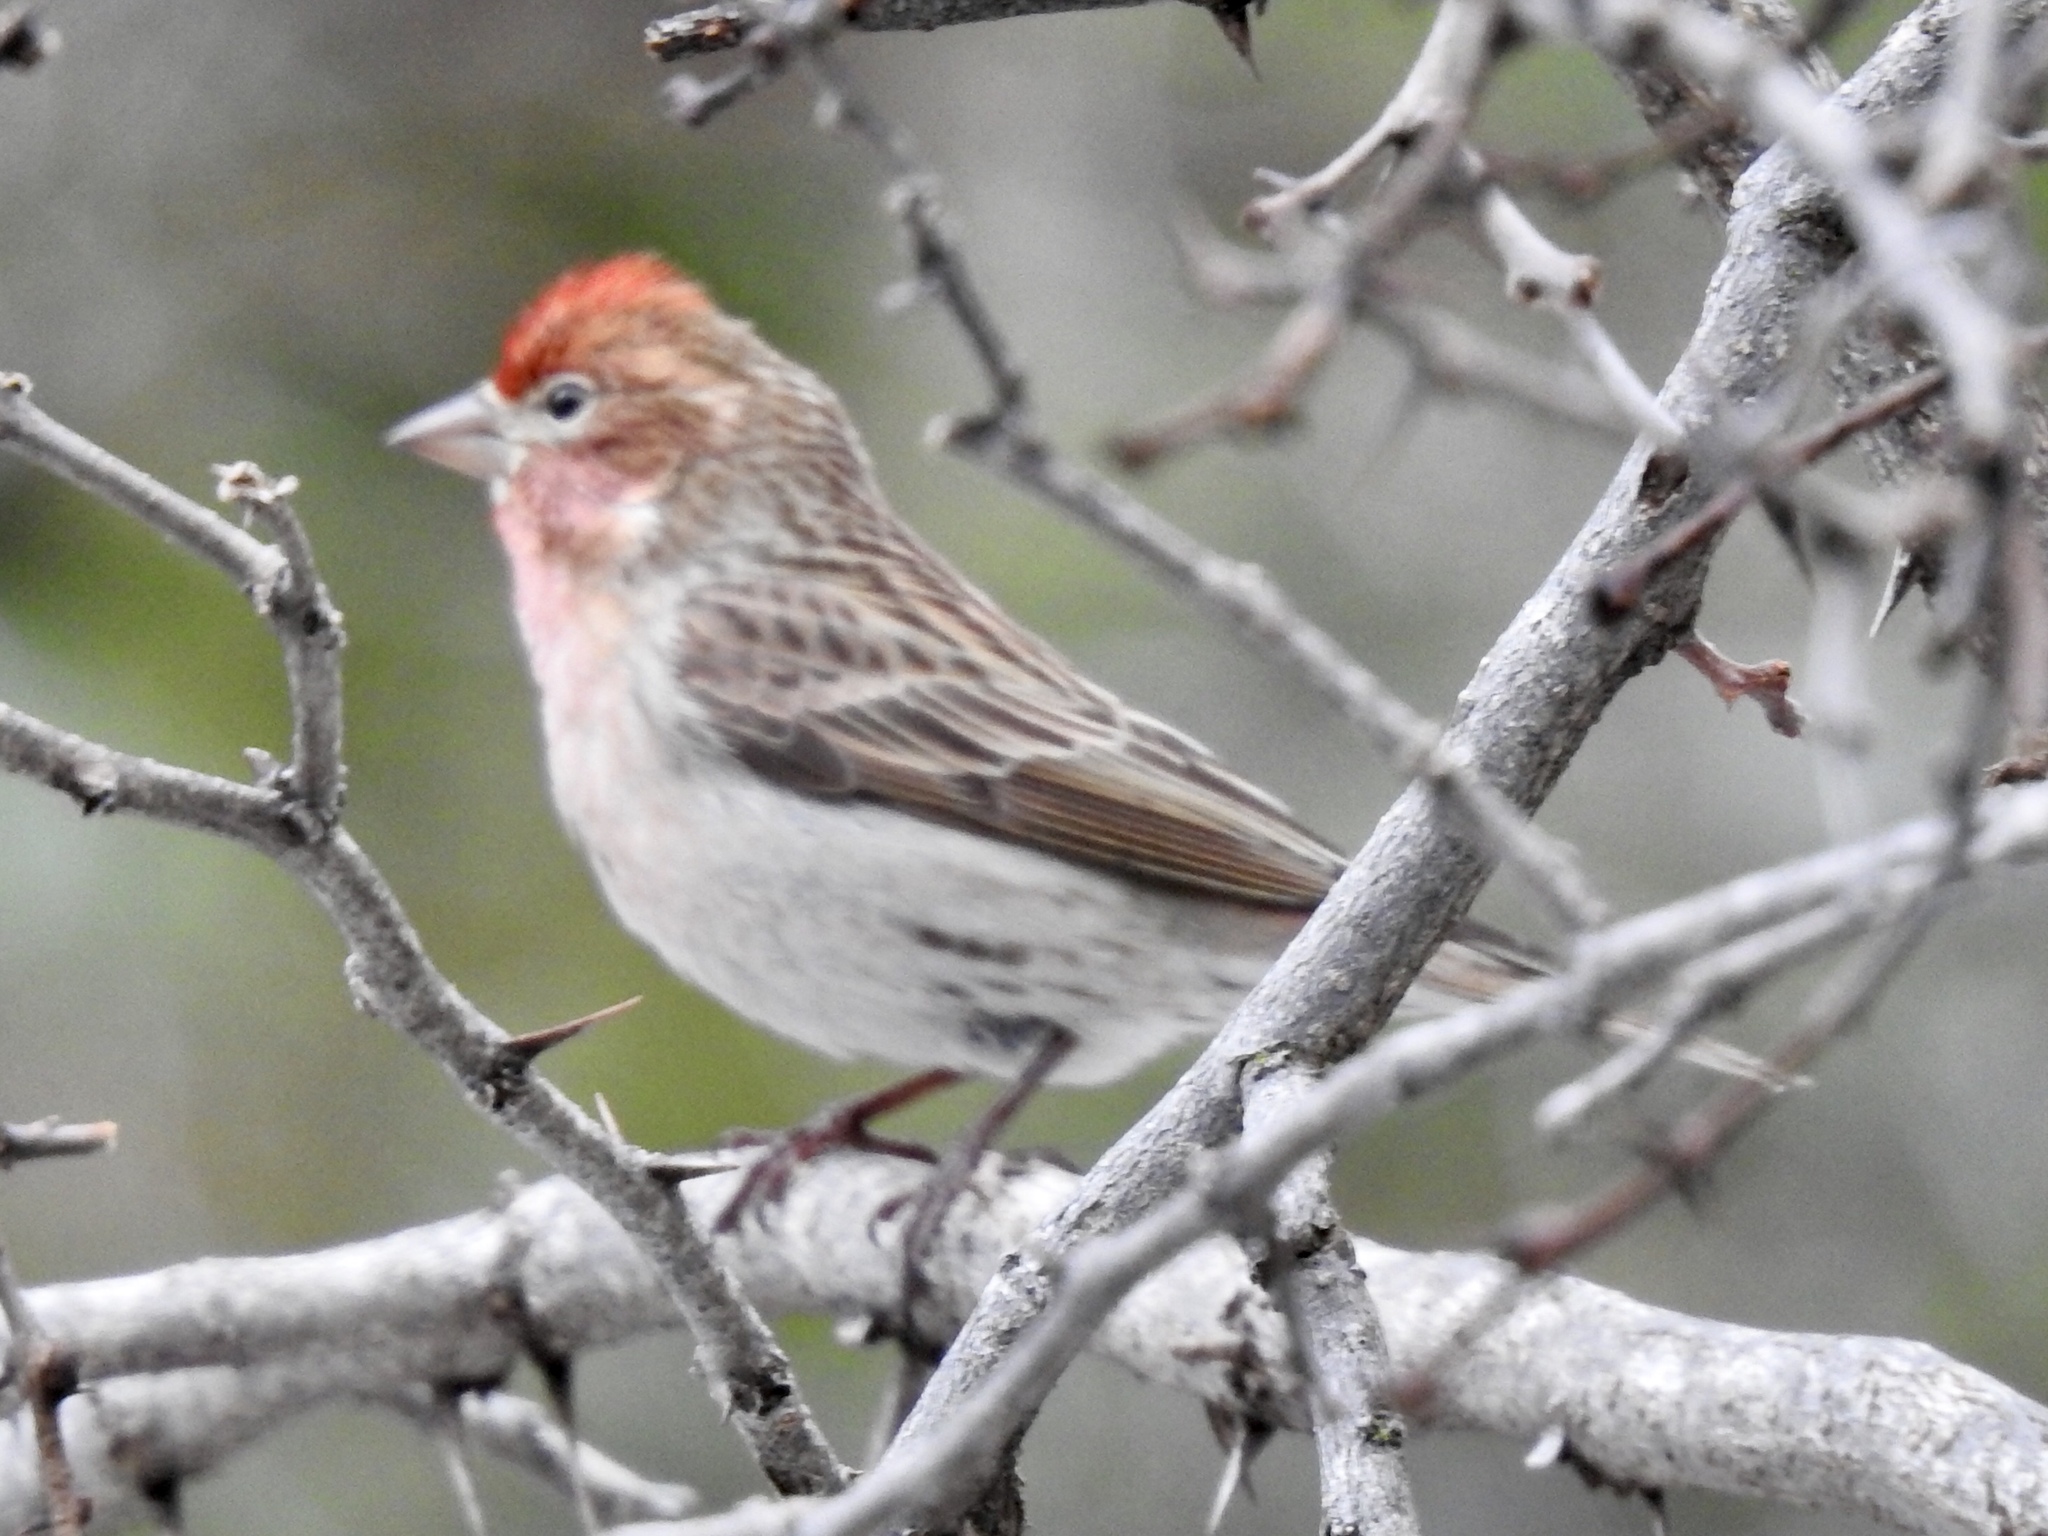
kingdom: Animalia
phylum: Chordata
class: Aves
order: Passeriformes
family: Fringillidae
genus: Haemorhous
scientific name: Haemorhous cassinii
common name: Cassin's finch
